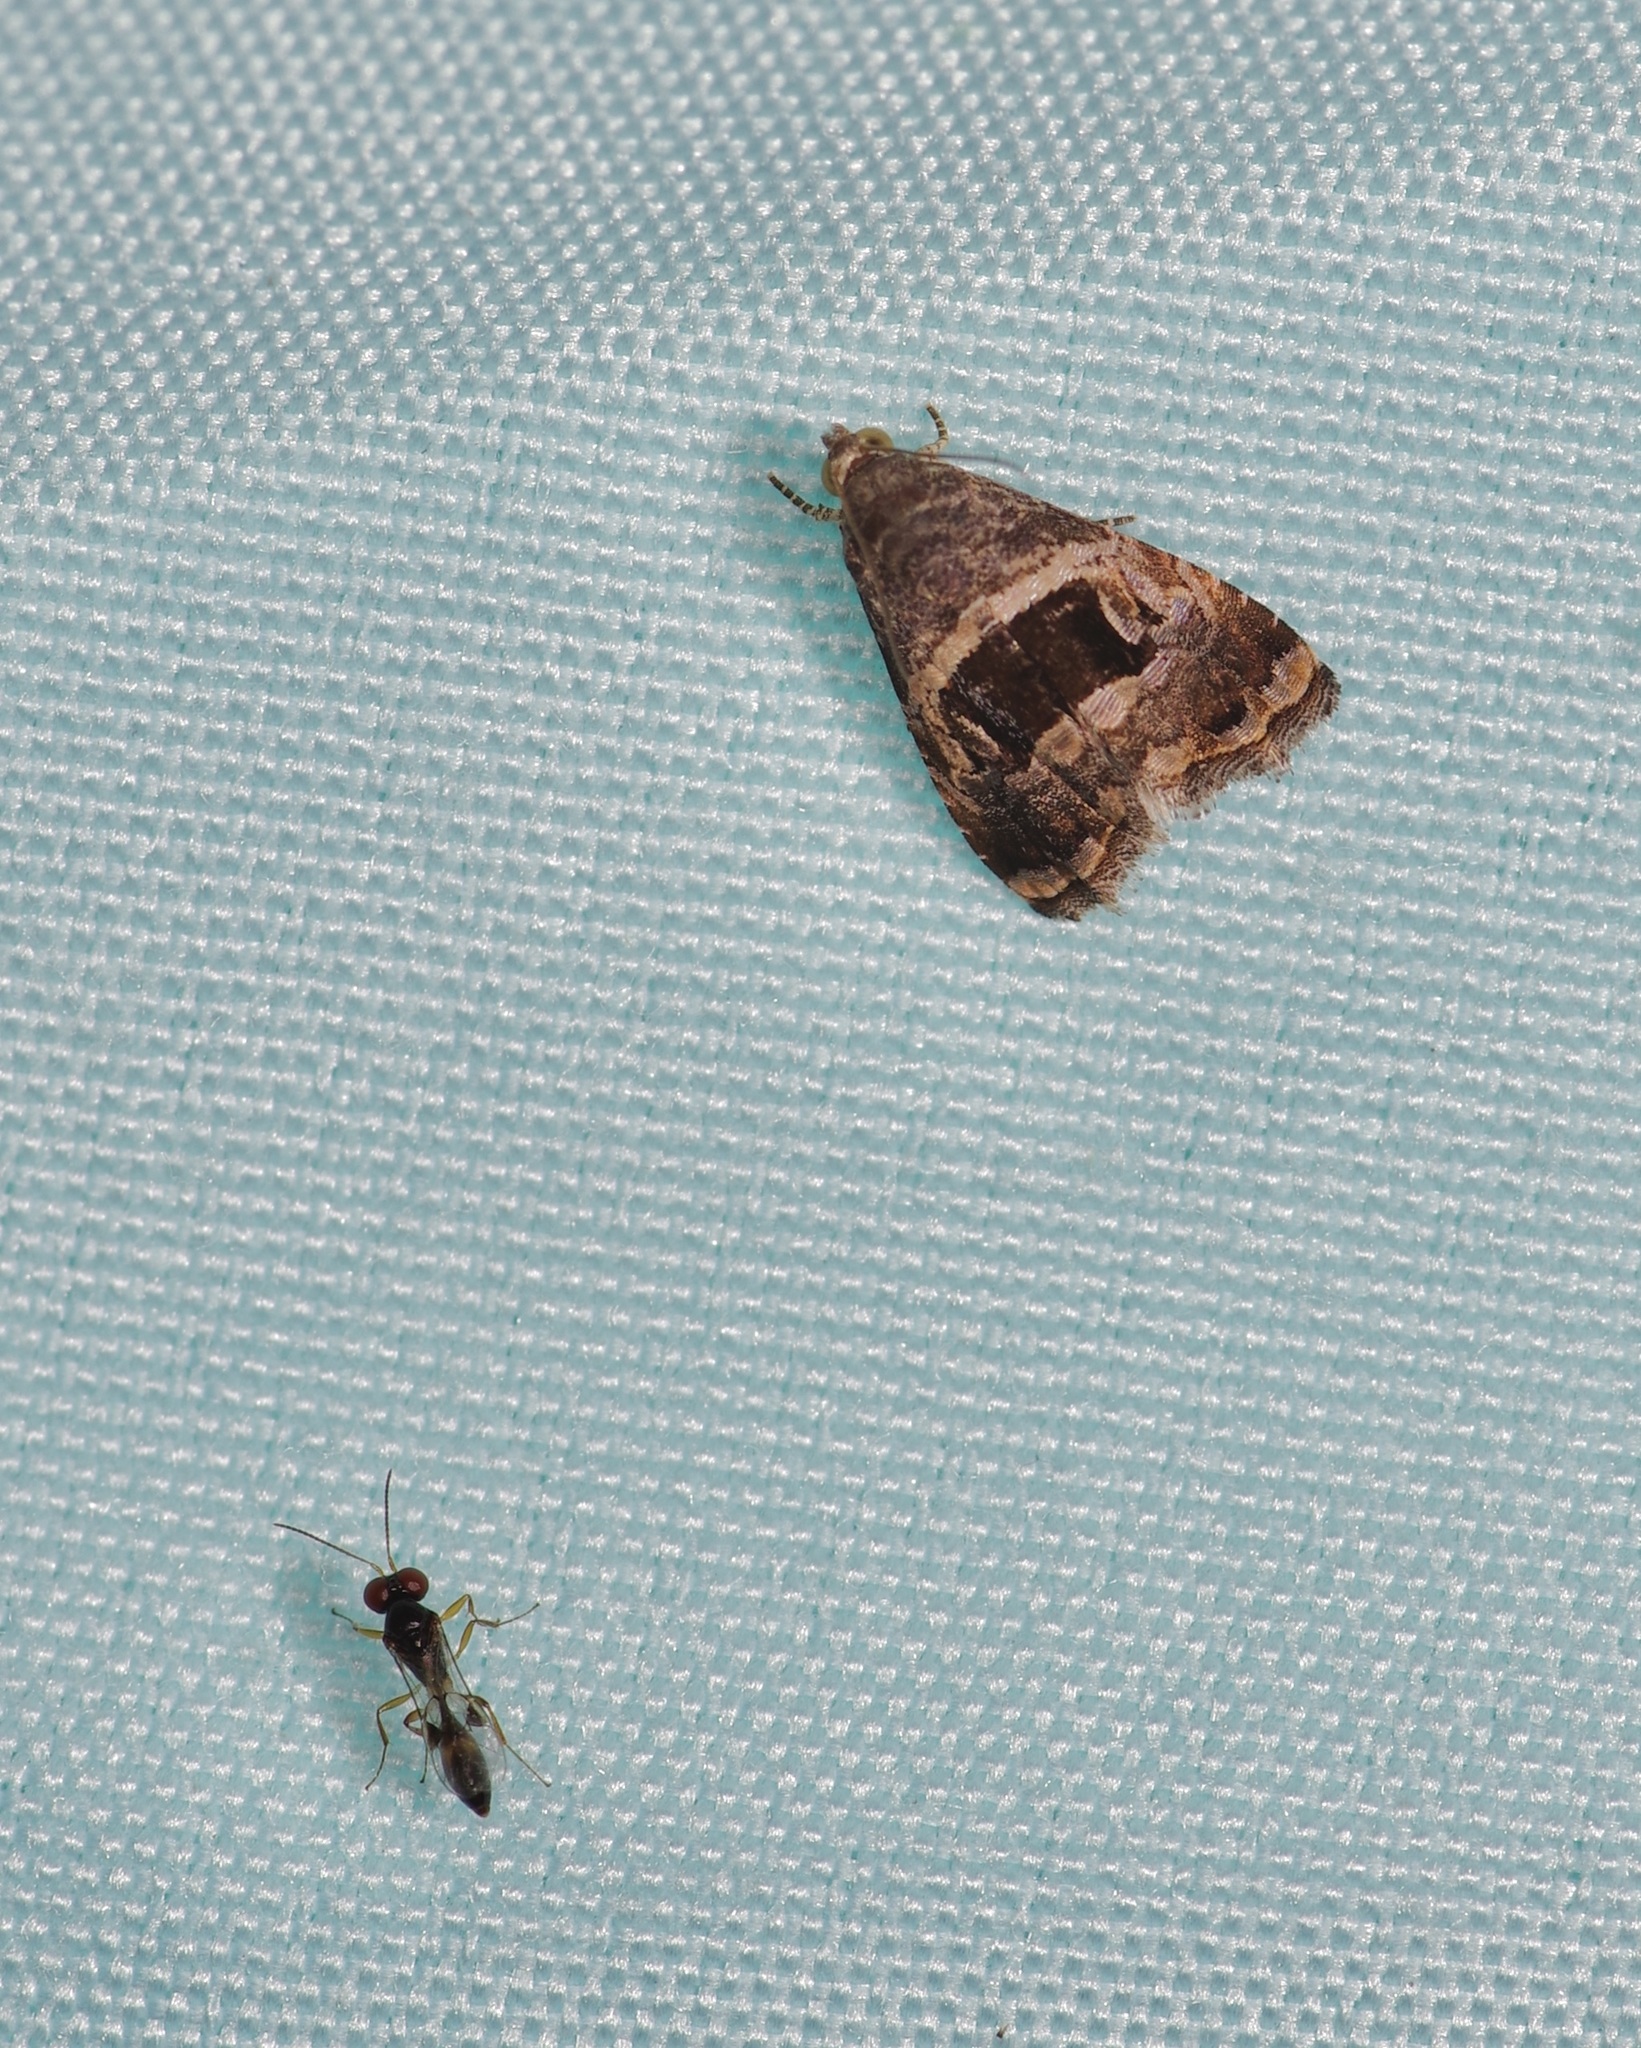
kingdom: Animalia
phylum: Arthropoda
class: Insecta
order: Lepidoptera
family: Noctuidae
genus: Tripudia
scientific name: Tripudia quadrifera
